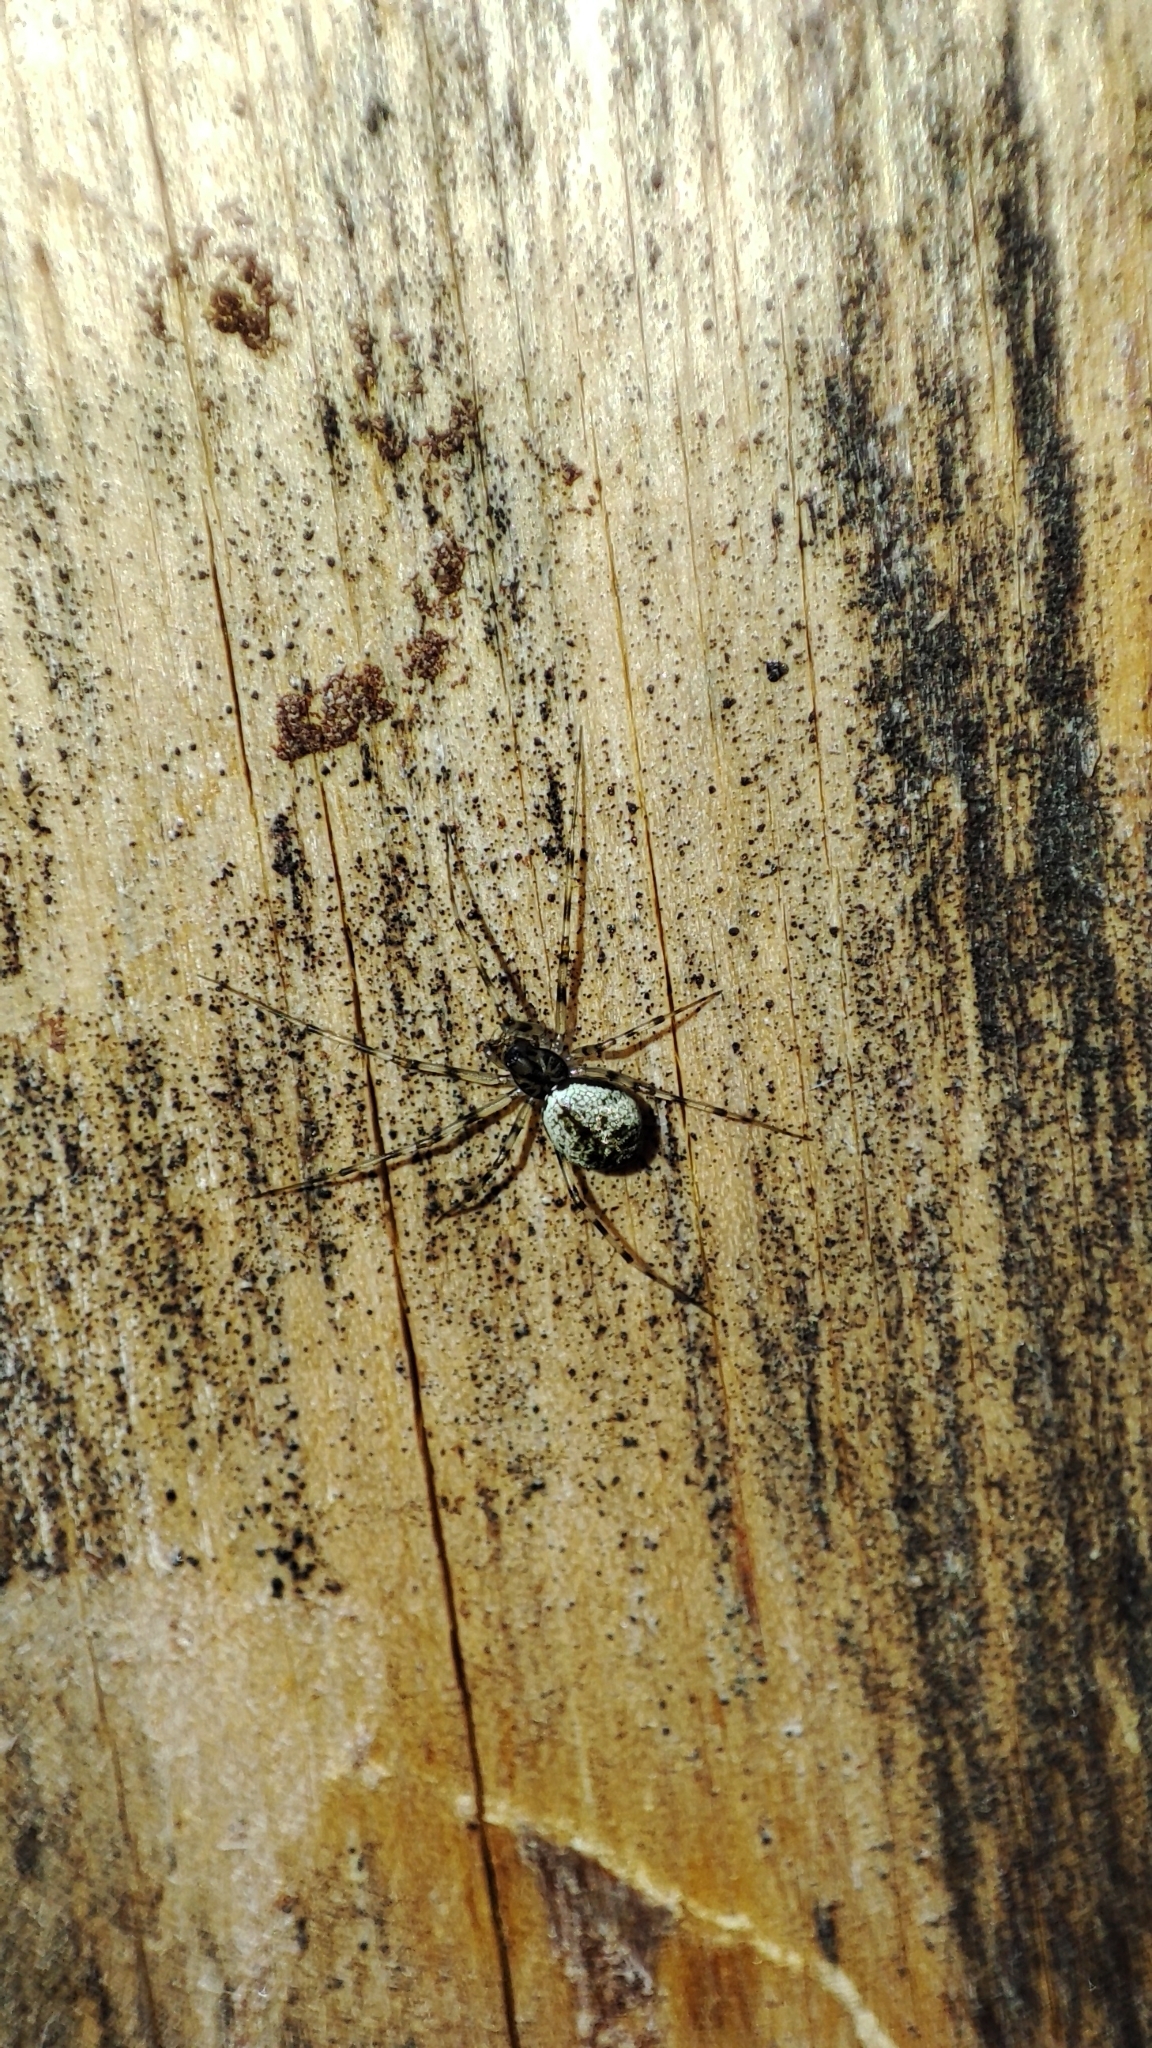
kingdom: Animalia
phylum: Arthropoda
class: Arachnida
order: Araneae
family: Linyphiidae
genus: Drapetisca
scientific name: Drapetisca socialis
